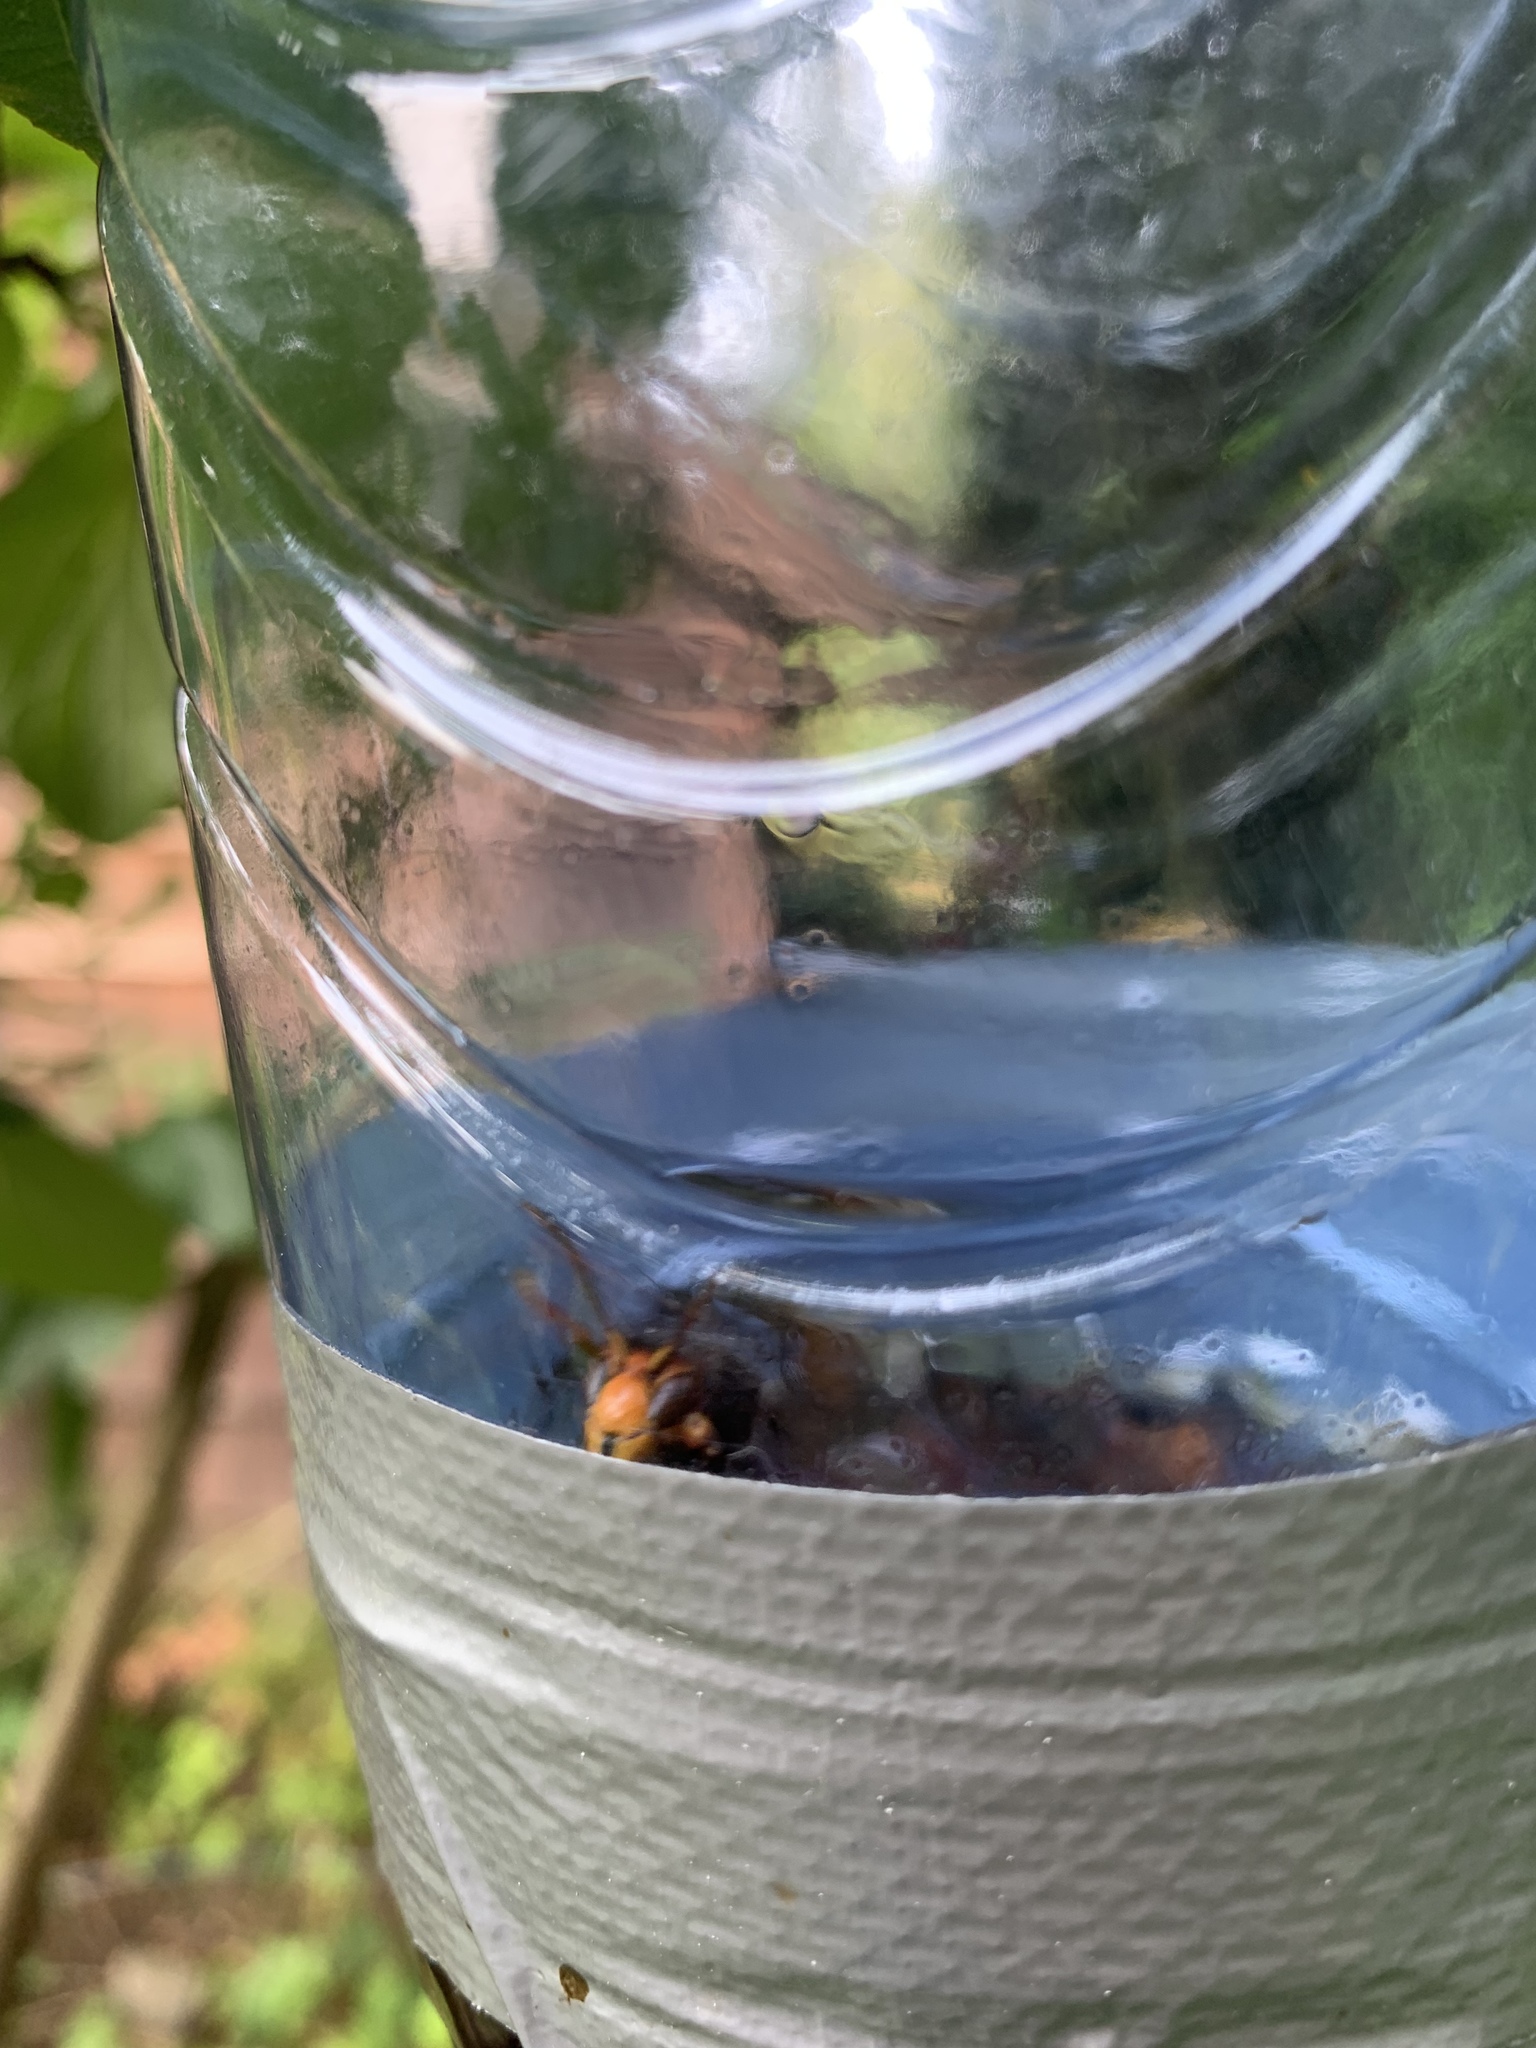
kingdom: Animalia
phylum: Arthropoda
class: Insecta
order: Hymenoptera
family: Vespidae
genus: Vespa
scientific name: Vespa velutina
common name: Asian hornet
